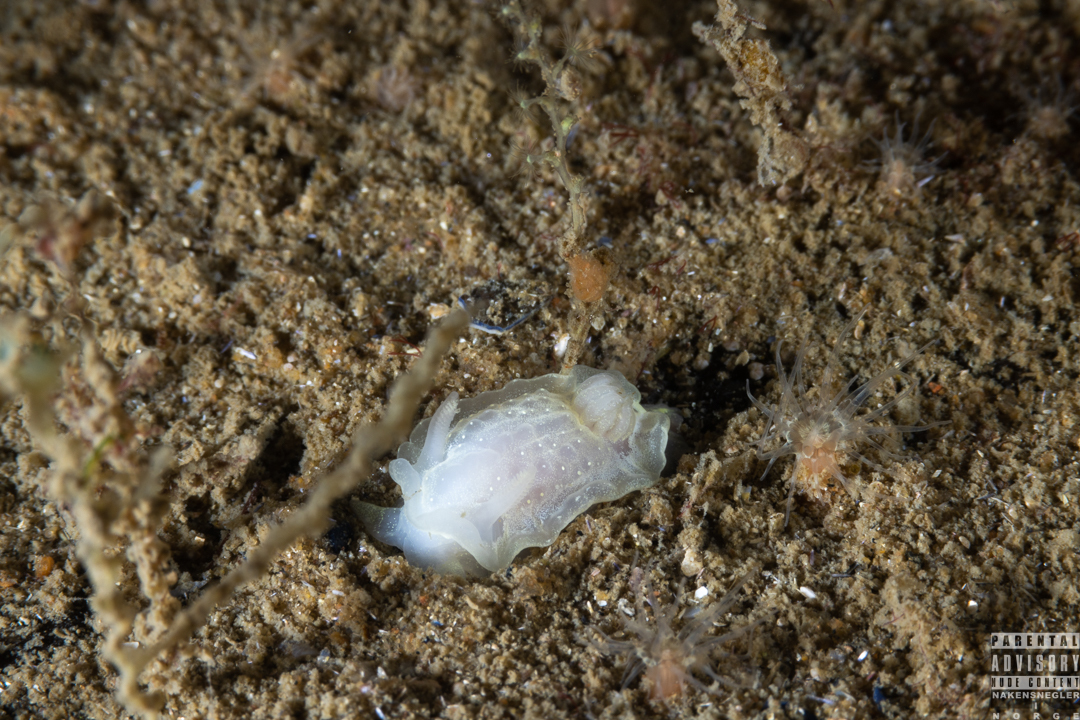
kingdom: Animalia
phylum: Mollusca
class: Gastropoda
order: Nudibranchia
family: Goniodorididae
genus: Okenia
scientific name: Okenia
